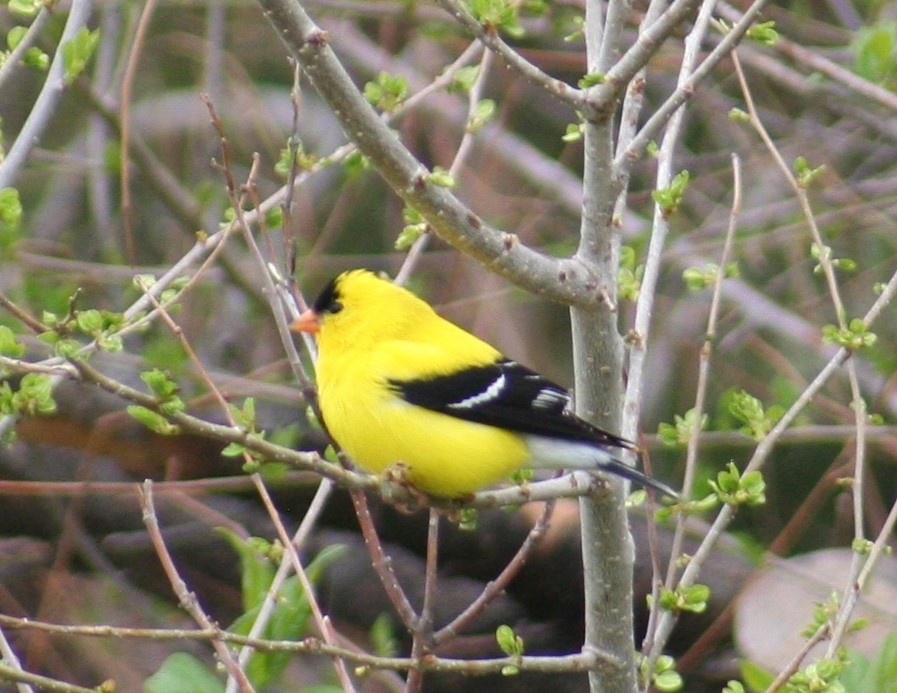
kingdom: Animalia
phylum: Chordata
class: Aves
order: Passeriformes
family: Fringillidae
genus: Spinus
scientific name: Spinus tristis
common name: American goldfinch
